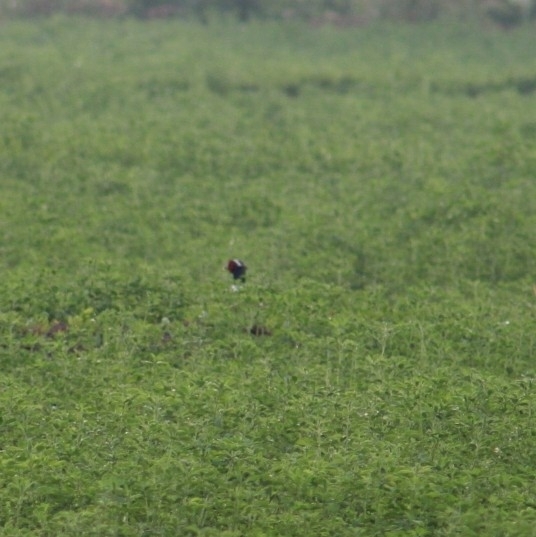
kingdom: Animalia
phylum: Chordata
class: Aves
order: Galliformes
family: Phasianidae
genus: Phasianus
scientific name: Phasianus colchicus
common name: Common pheasant
